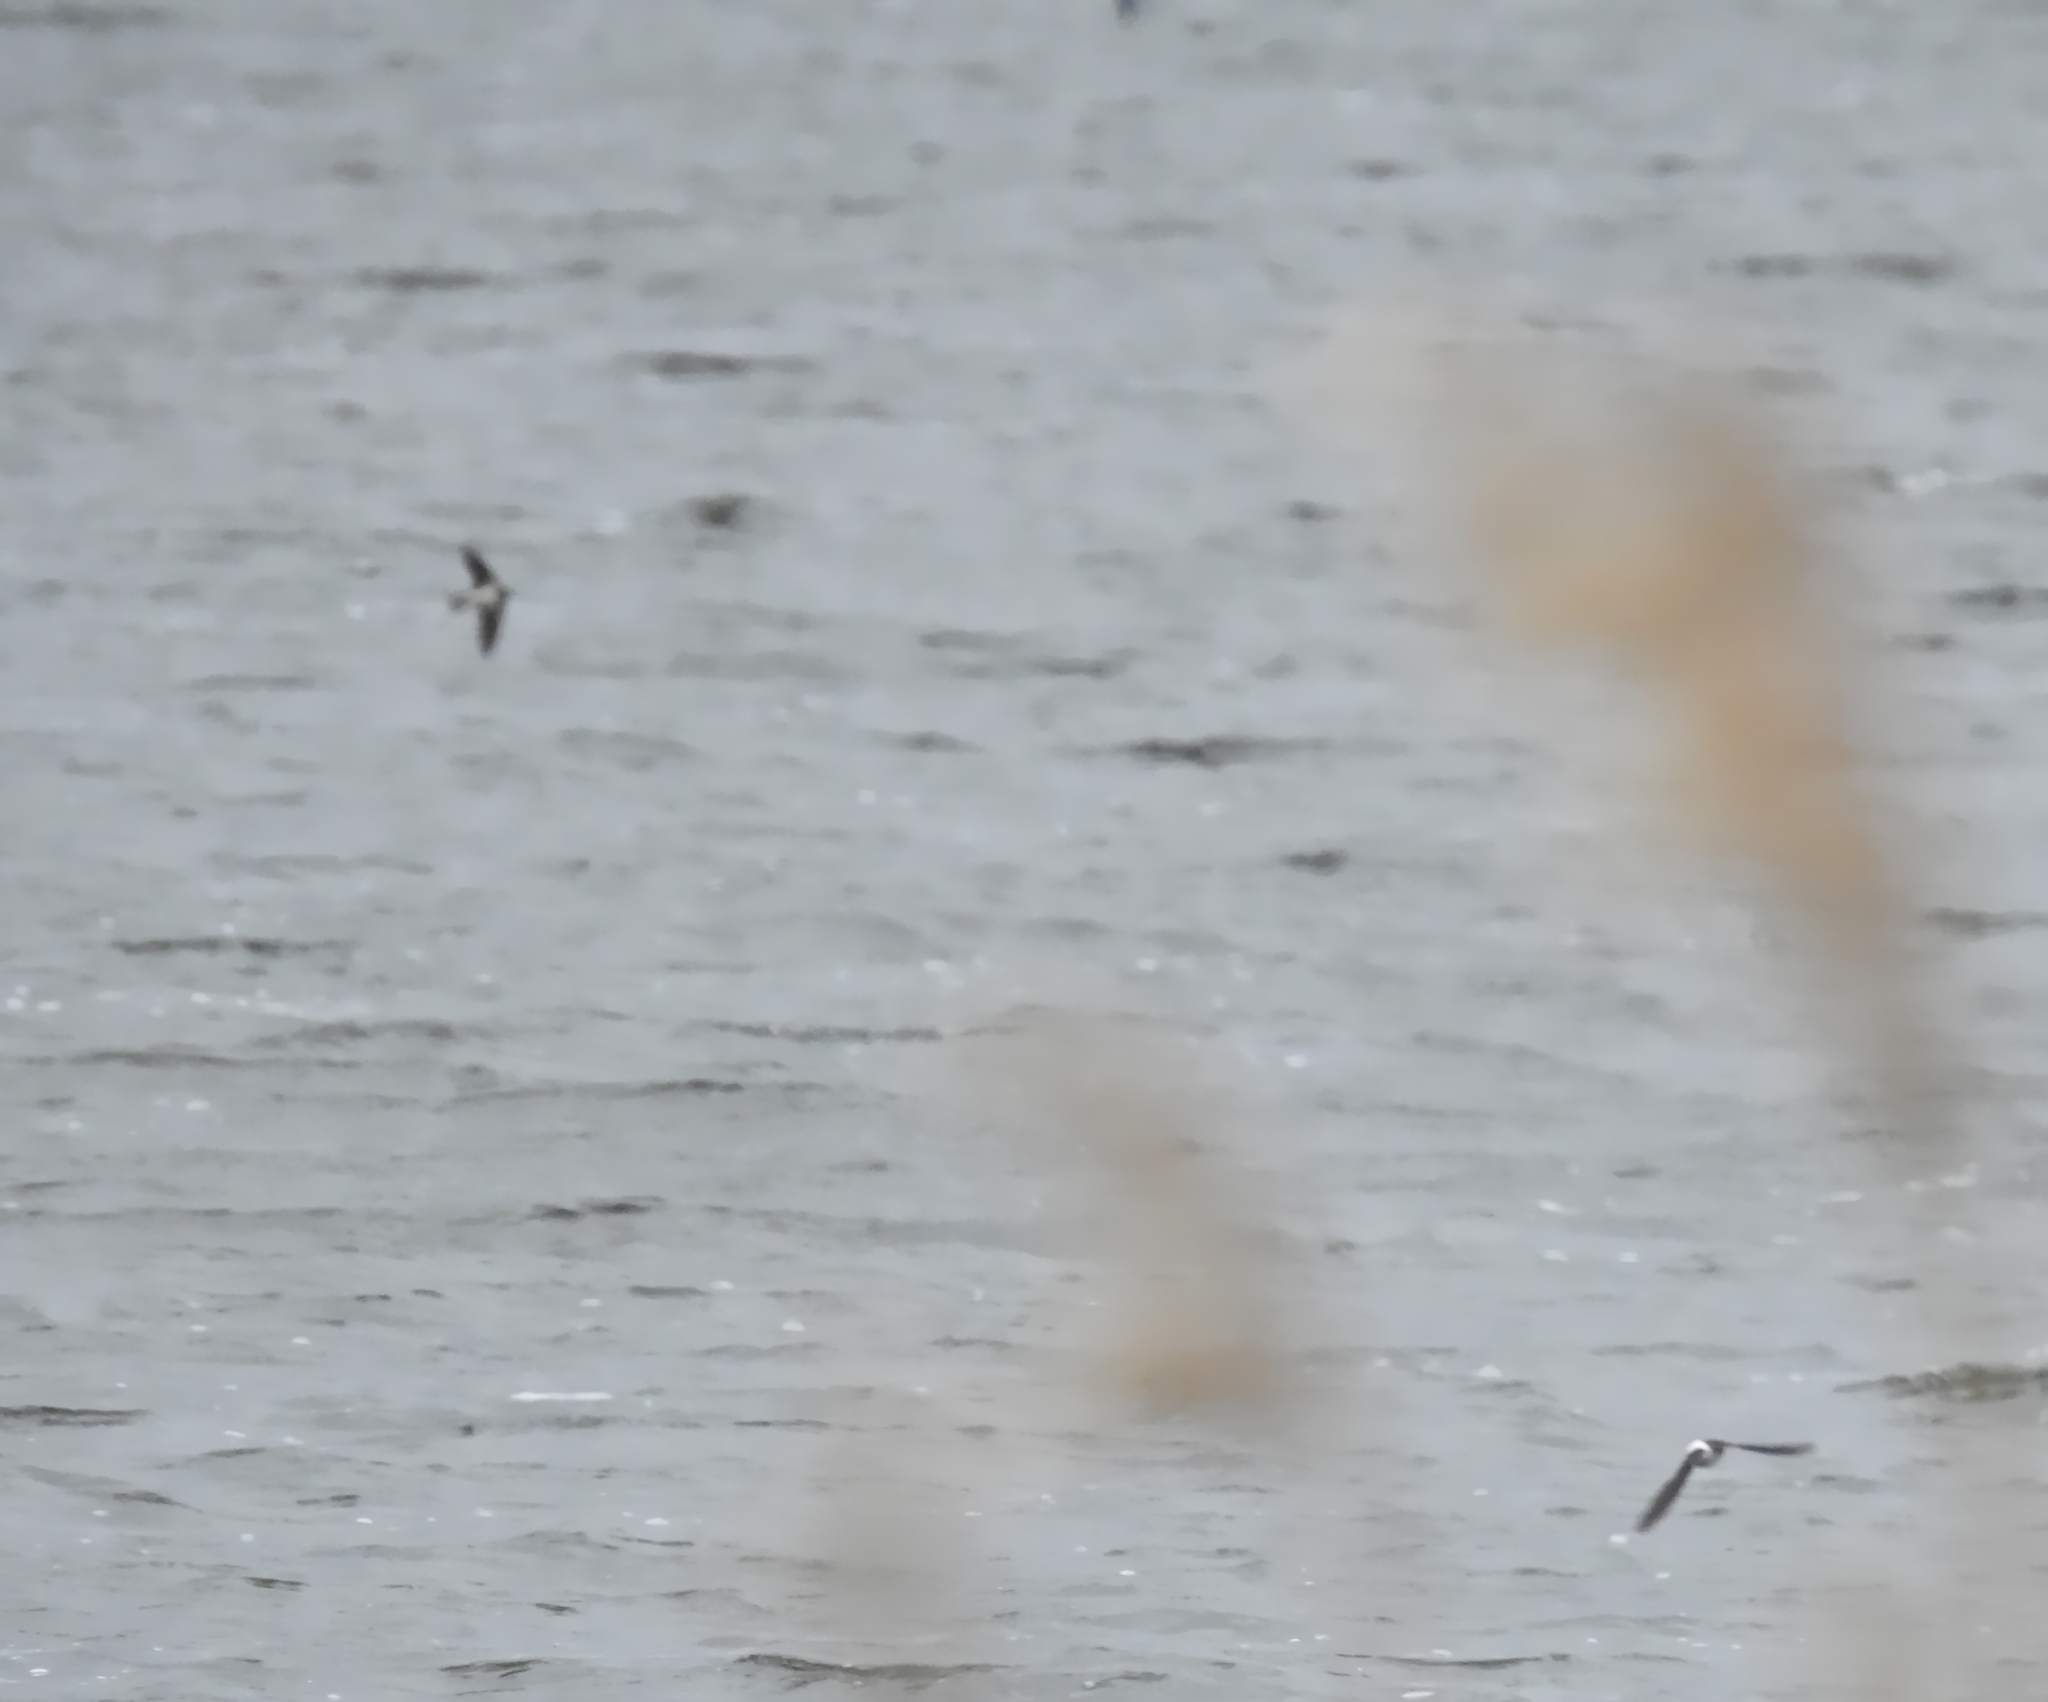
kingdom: Animalia
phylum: Chordata
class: Aves
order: Passeriformes
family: Hirundinidae
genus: Delichon
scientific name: Delichon urbicum
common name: Common house martin
